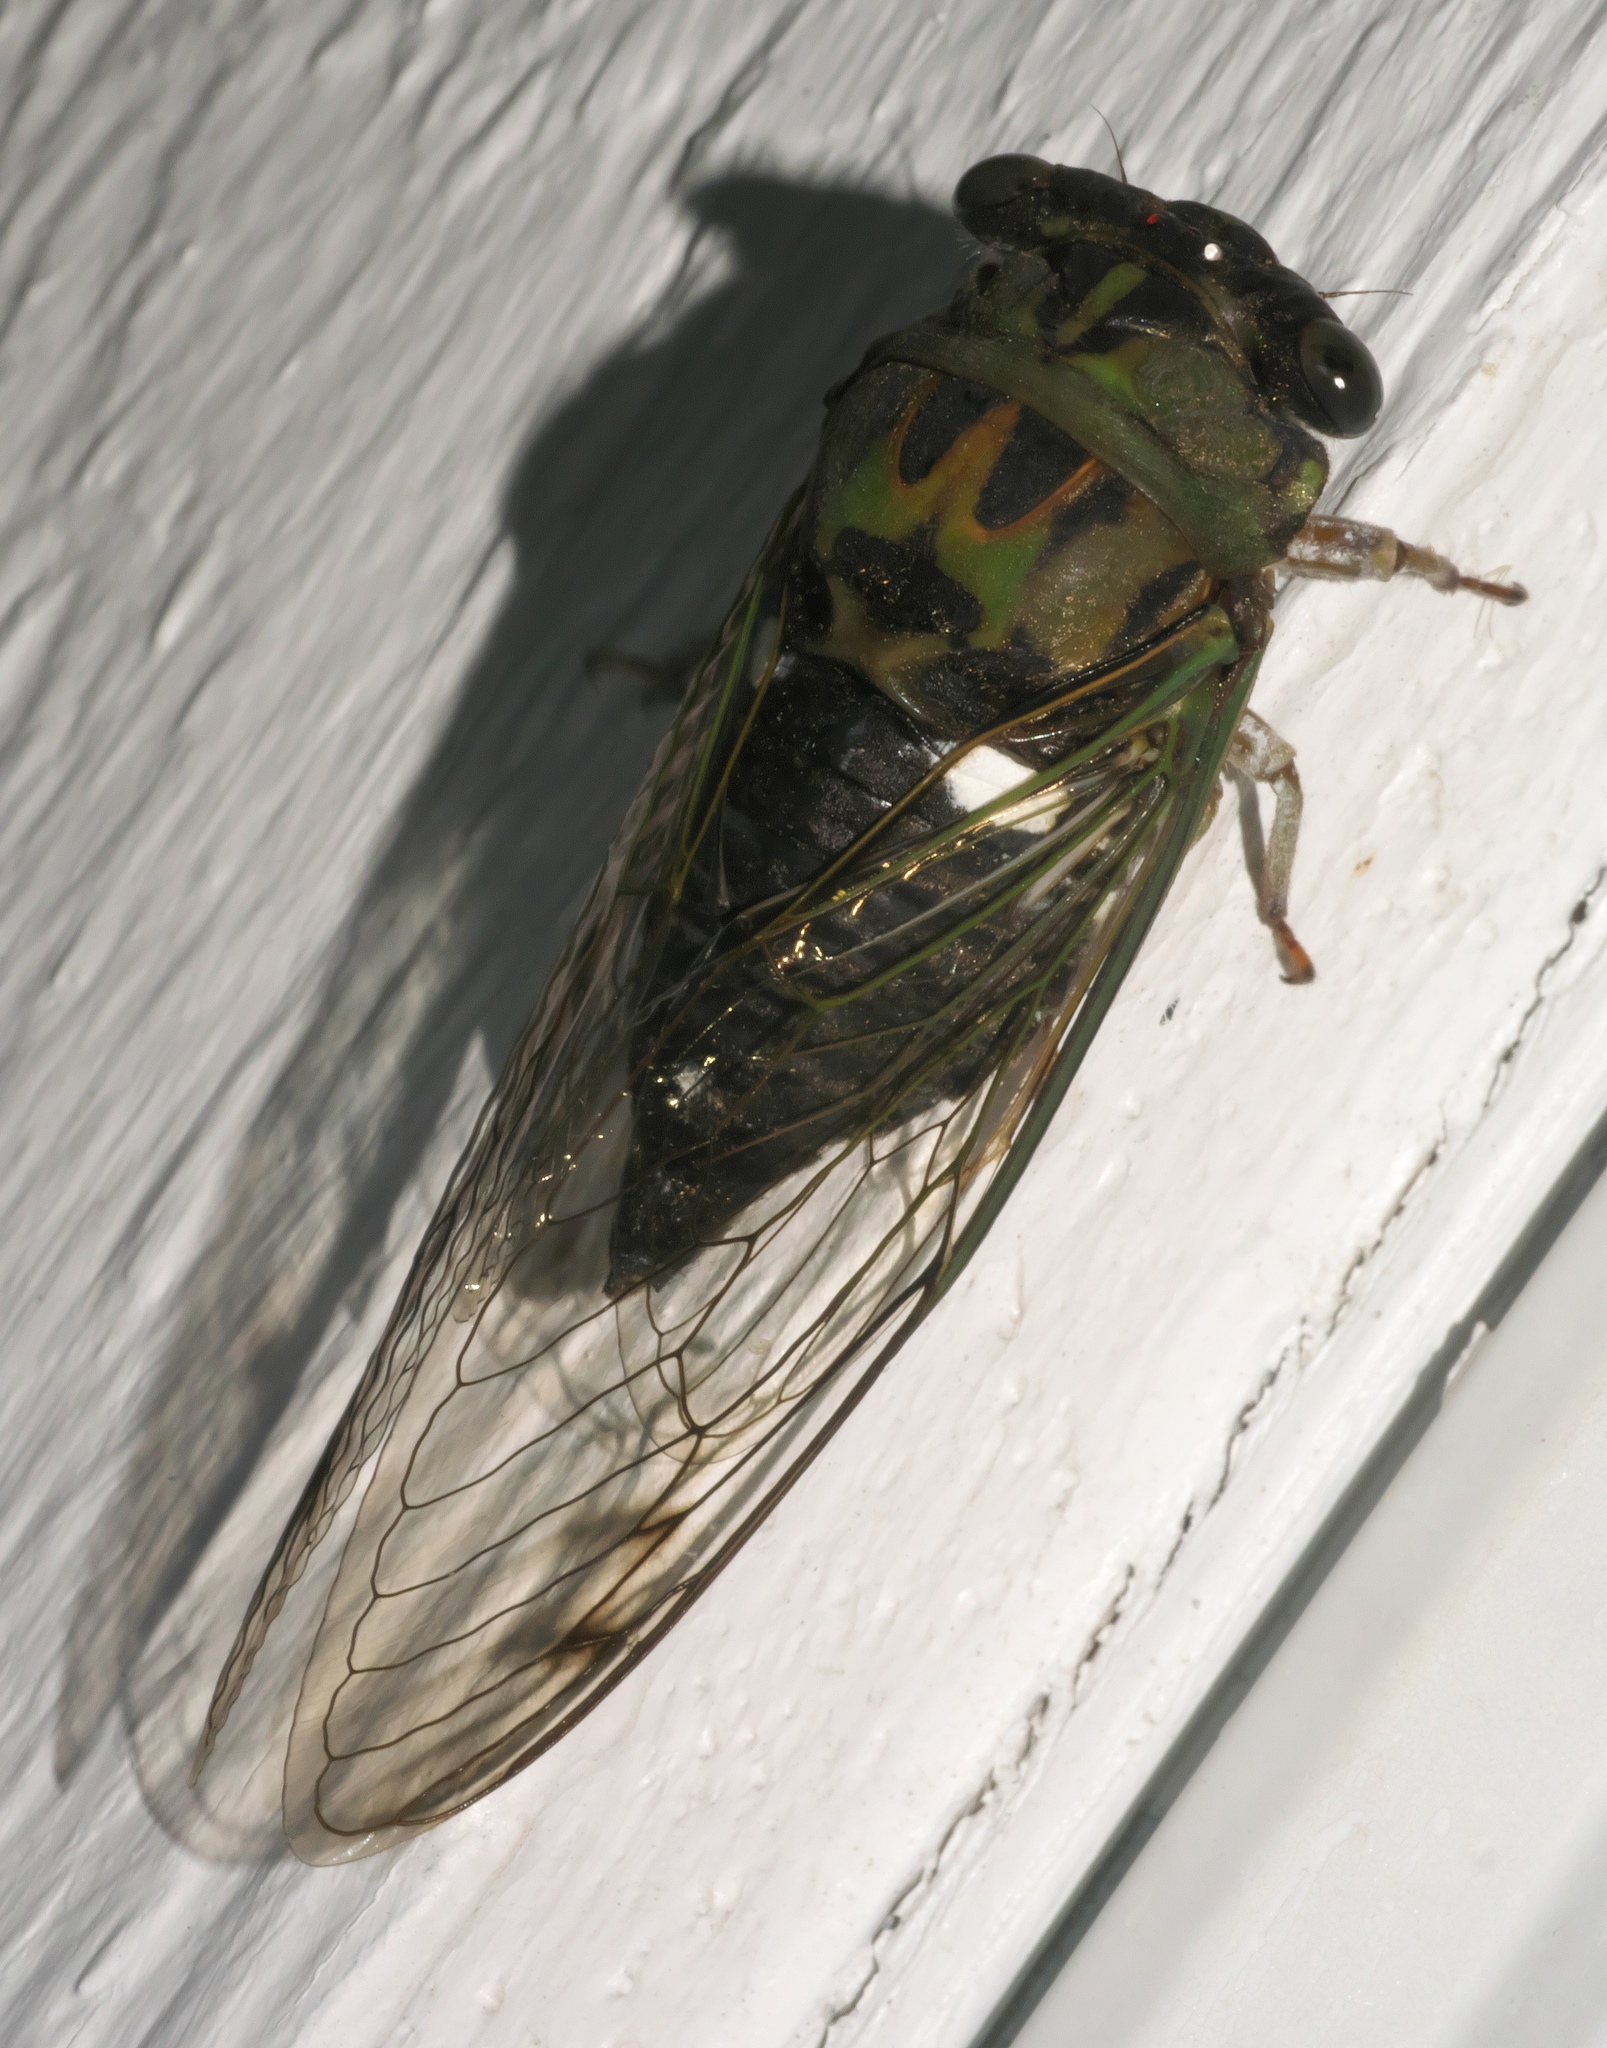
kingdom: Animalia
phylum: Arthropoda
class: Insecta
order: Hemiptera
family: Cicadidae
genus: Neotibicen
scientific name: Neotibicen pruinosus
